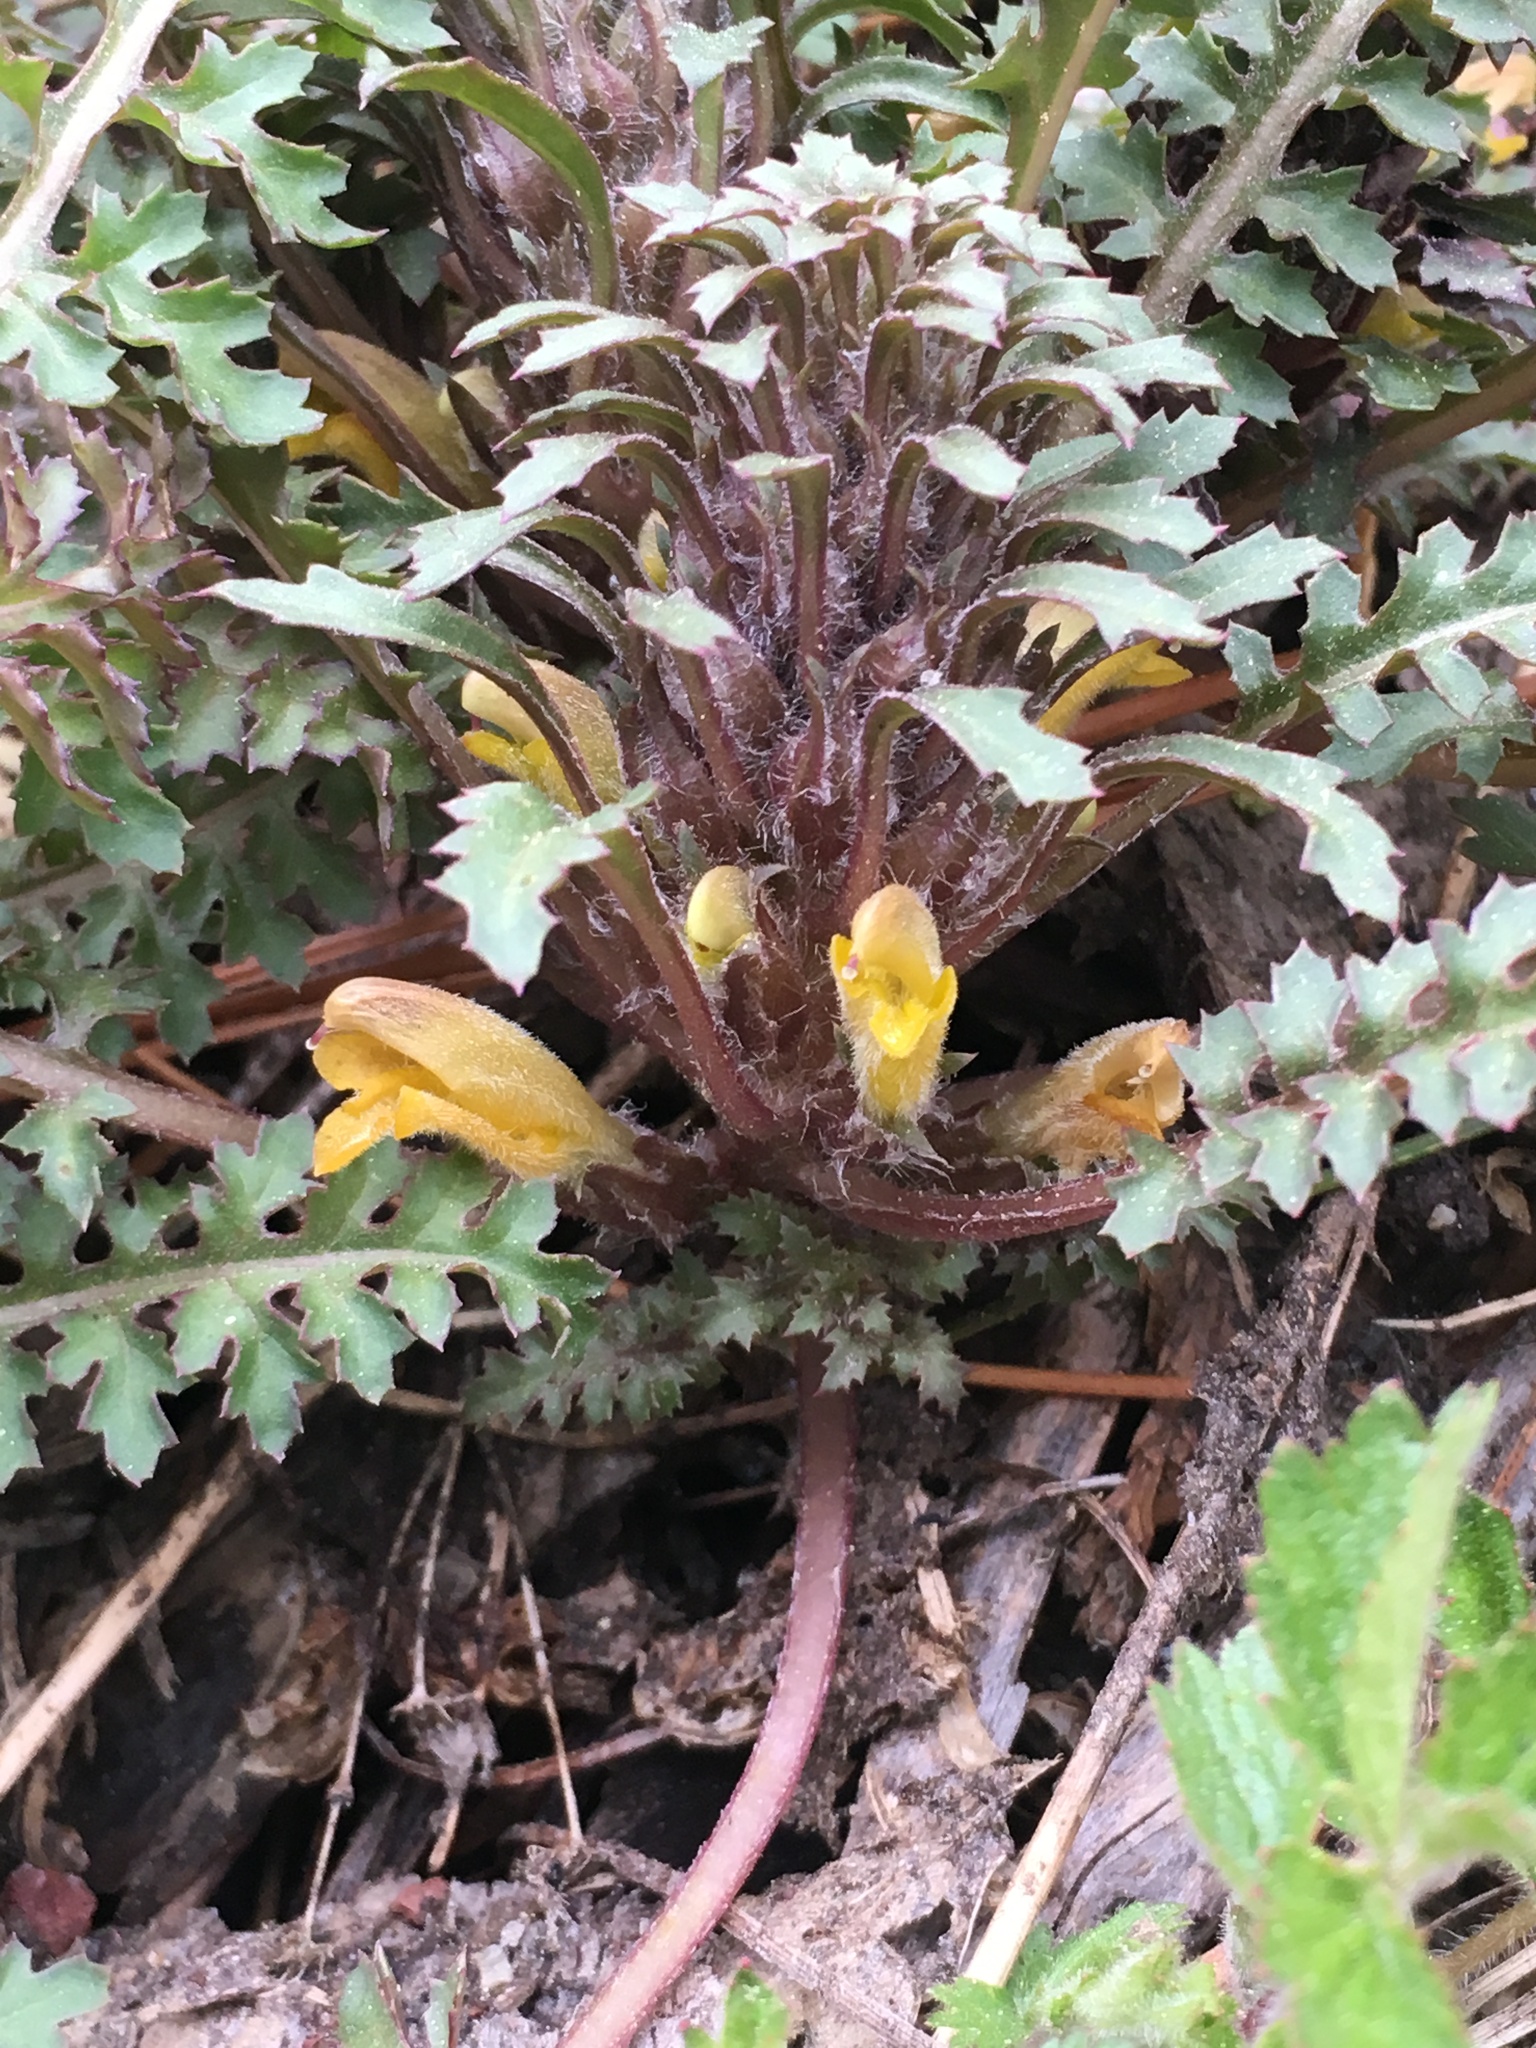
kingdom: Plantae
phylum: Tracheophyta
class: Magnoliopsida
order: Lamiales
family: Orobanchaceae
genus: Pedicularis
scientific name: Pedicularis semibarbata
